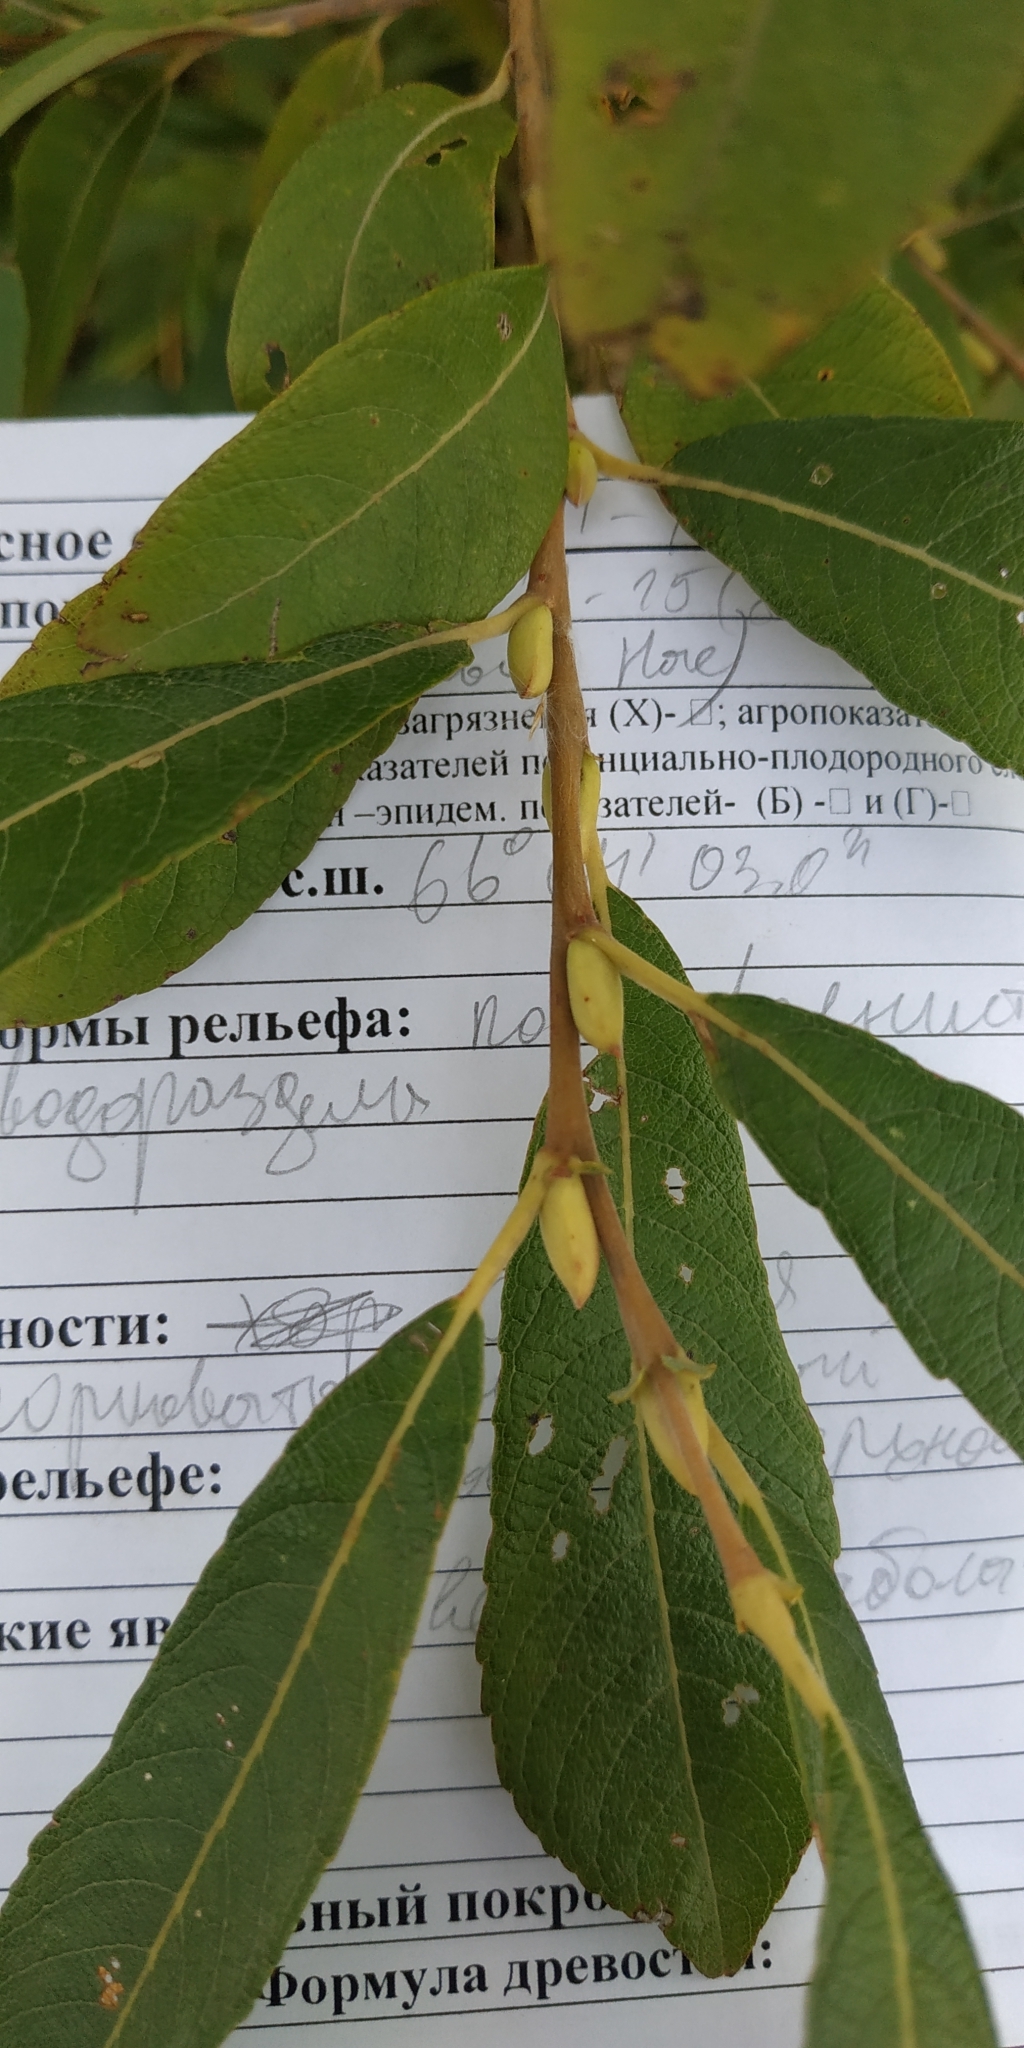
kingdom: Plantae
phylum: Tracheophyta
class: Magnoliopsida
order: Malpighiales
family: Salicaceae
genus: Salix
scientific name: Salix cinerea
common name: Common sallow
